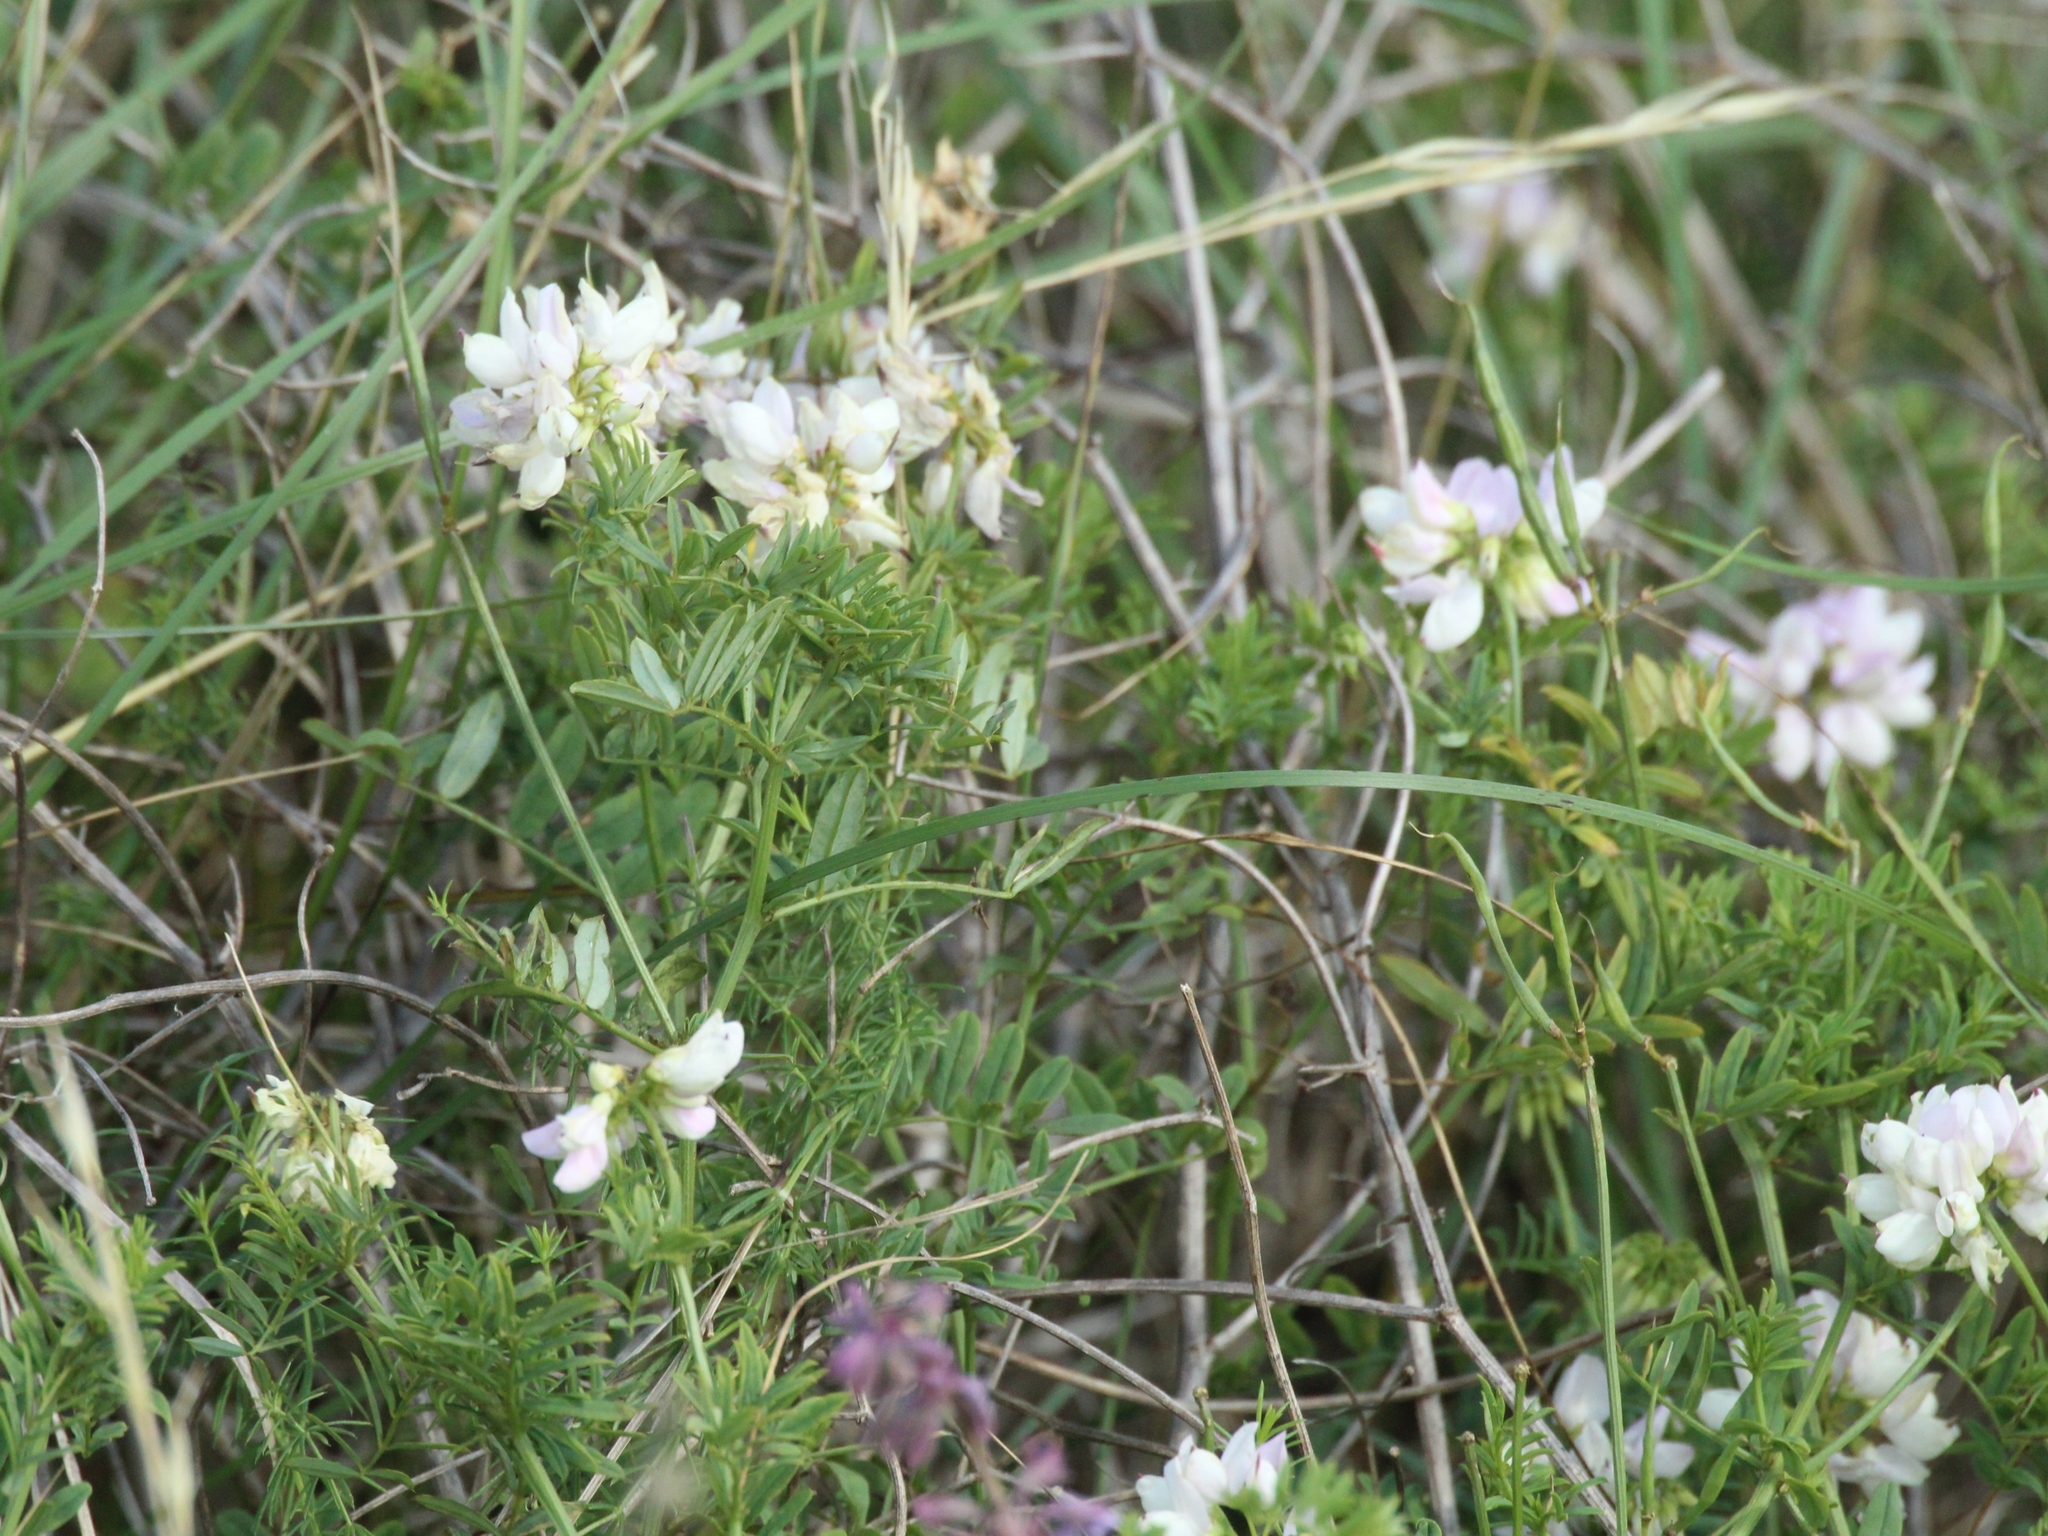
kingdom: Plantae
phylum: Tracheophyta
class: Magnoliopsida
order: Fabales
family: Fabaceae
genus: Coronilla
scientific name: Coronilla varia
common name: Crownvetch
